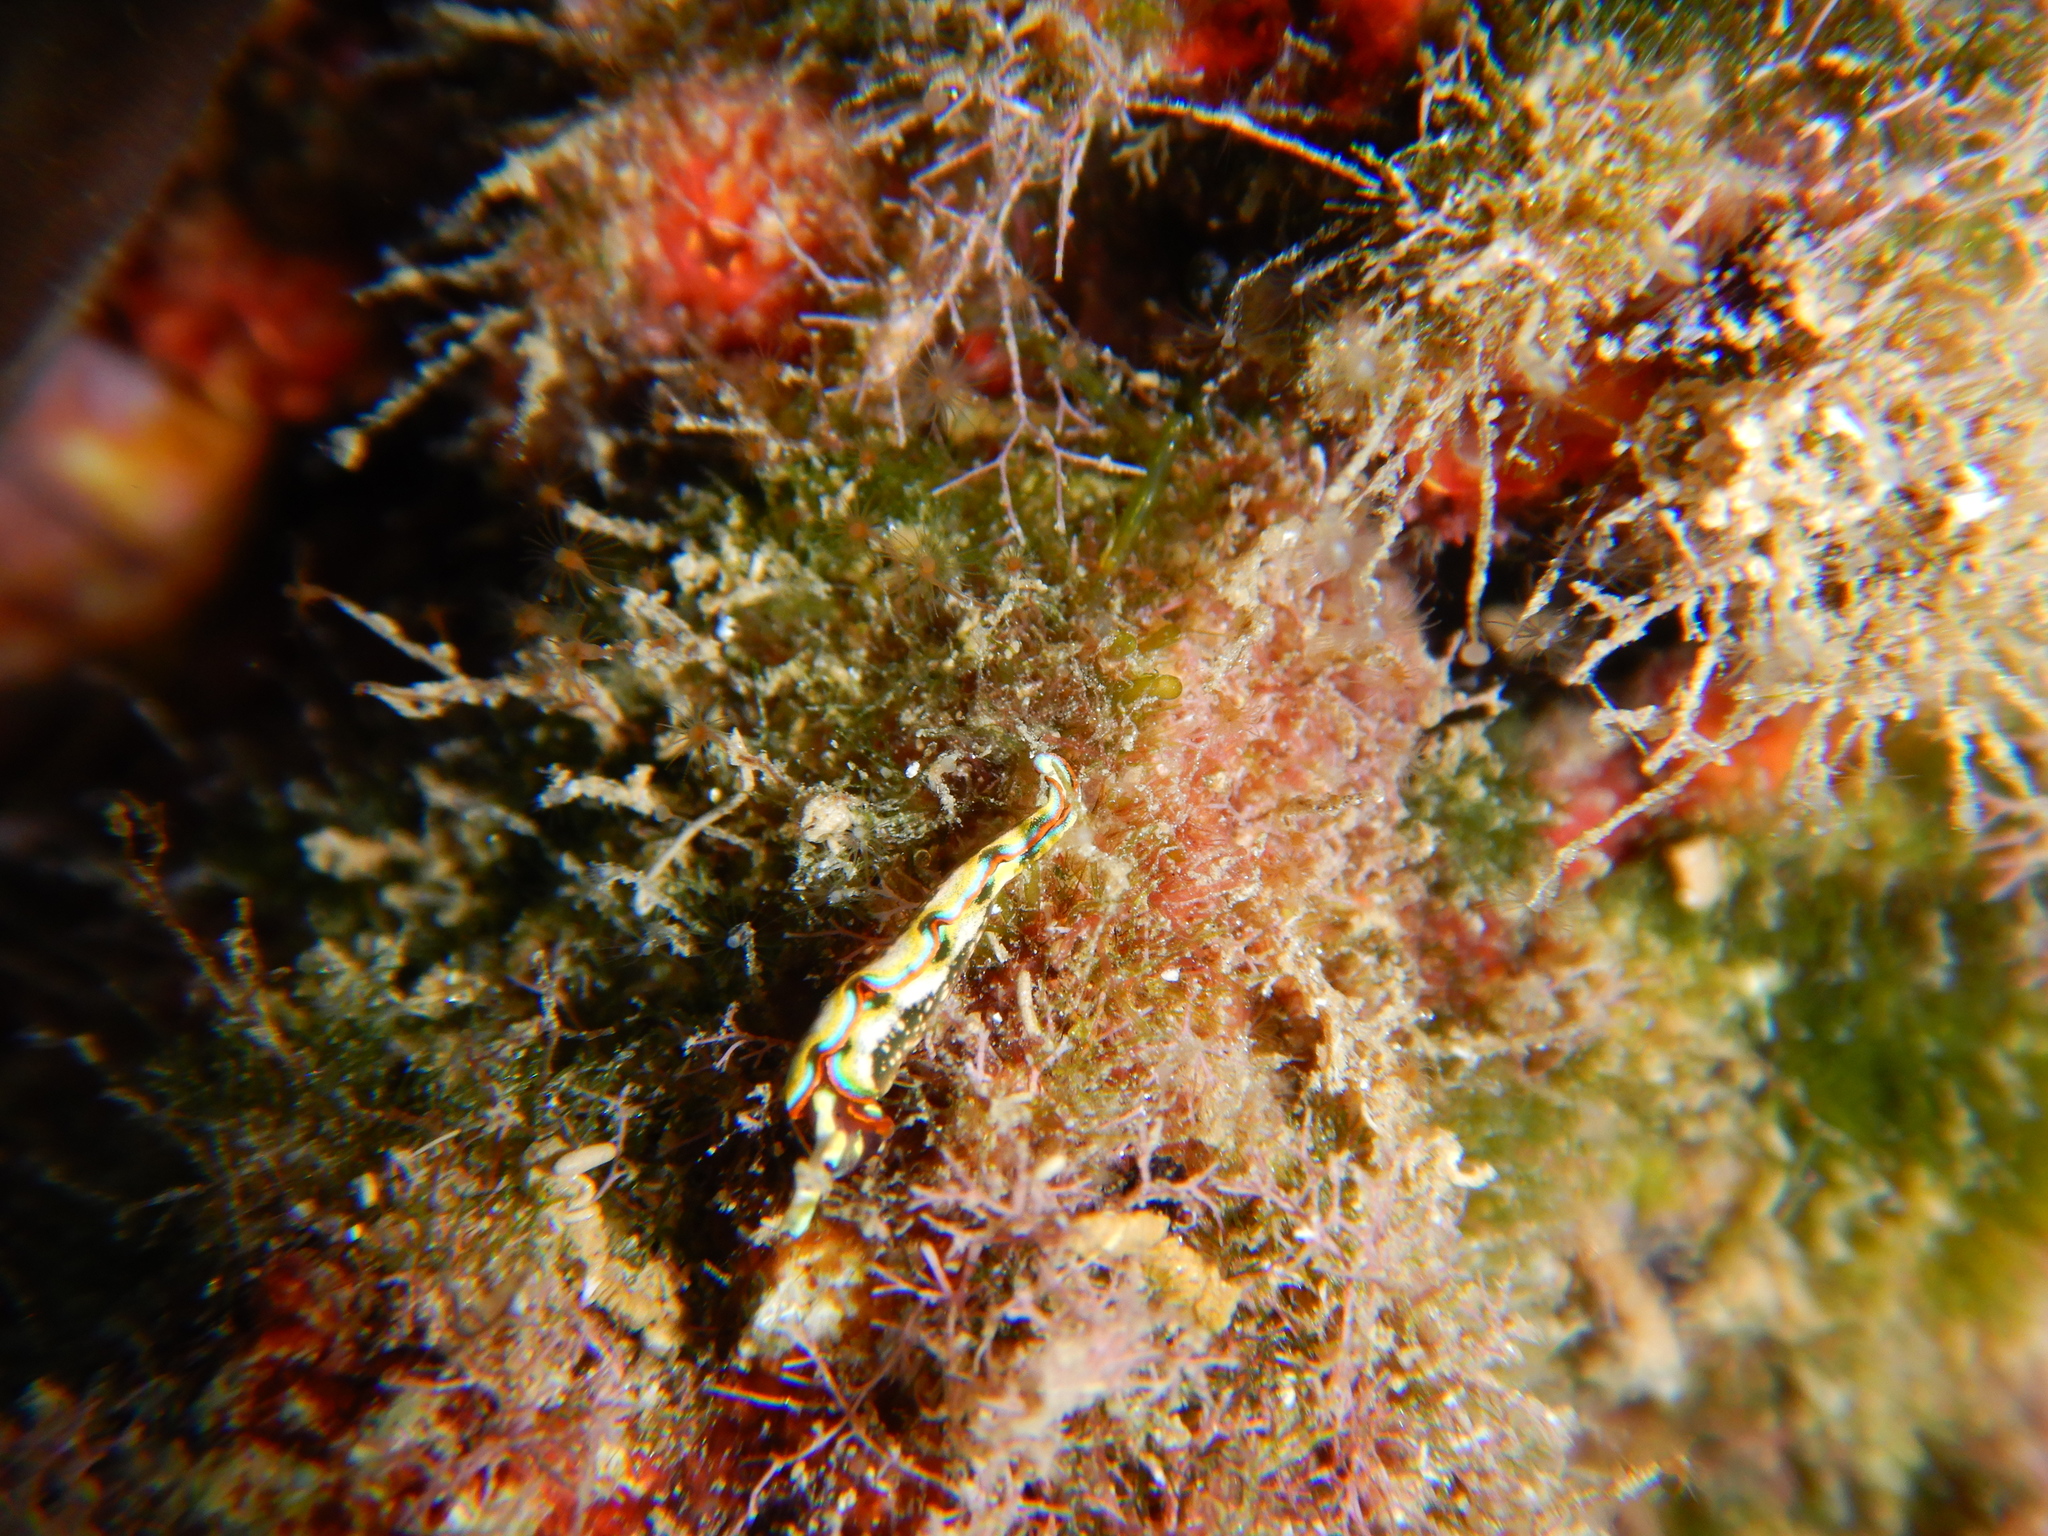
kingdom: Animalia
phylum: Mollusca
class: Gastropoda
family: Plakobranchidae
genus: Thuridilla
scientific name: Thuridilla hopei
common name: Splendid elysia
